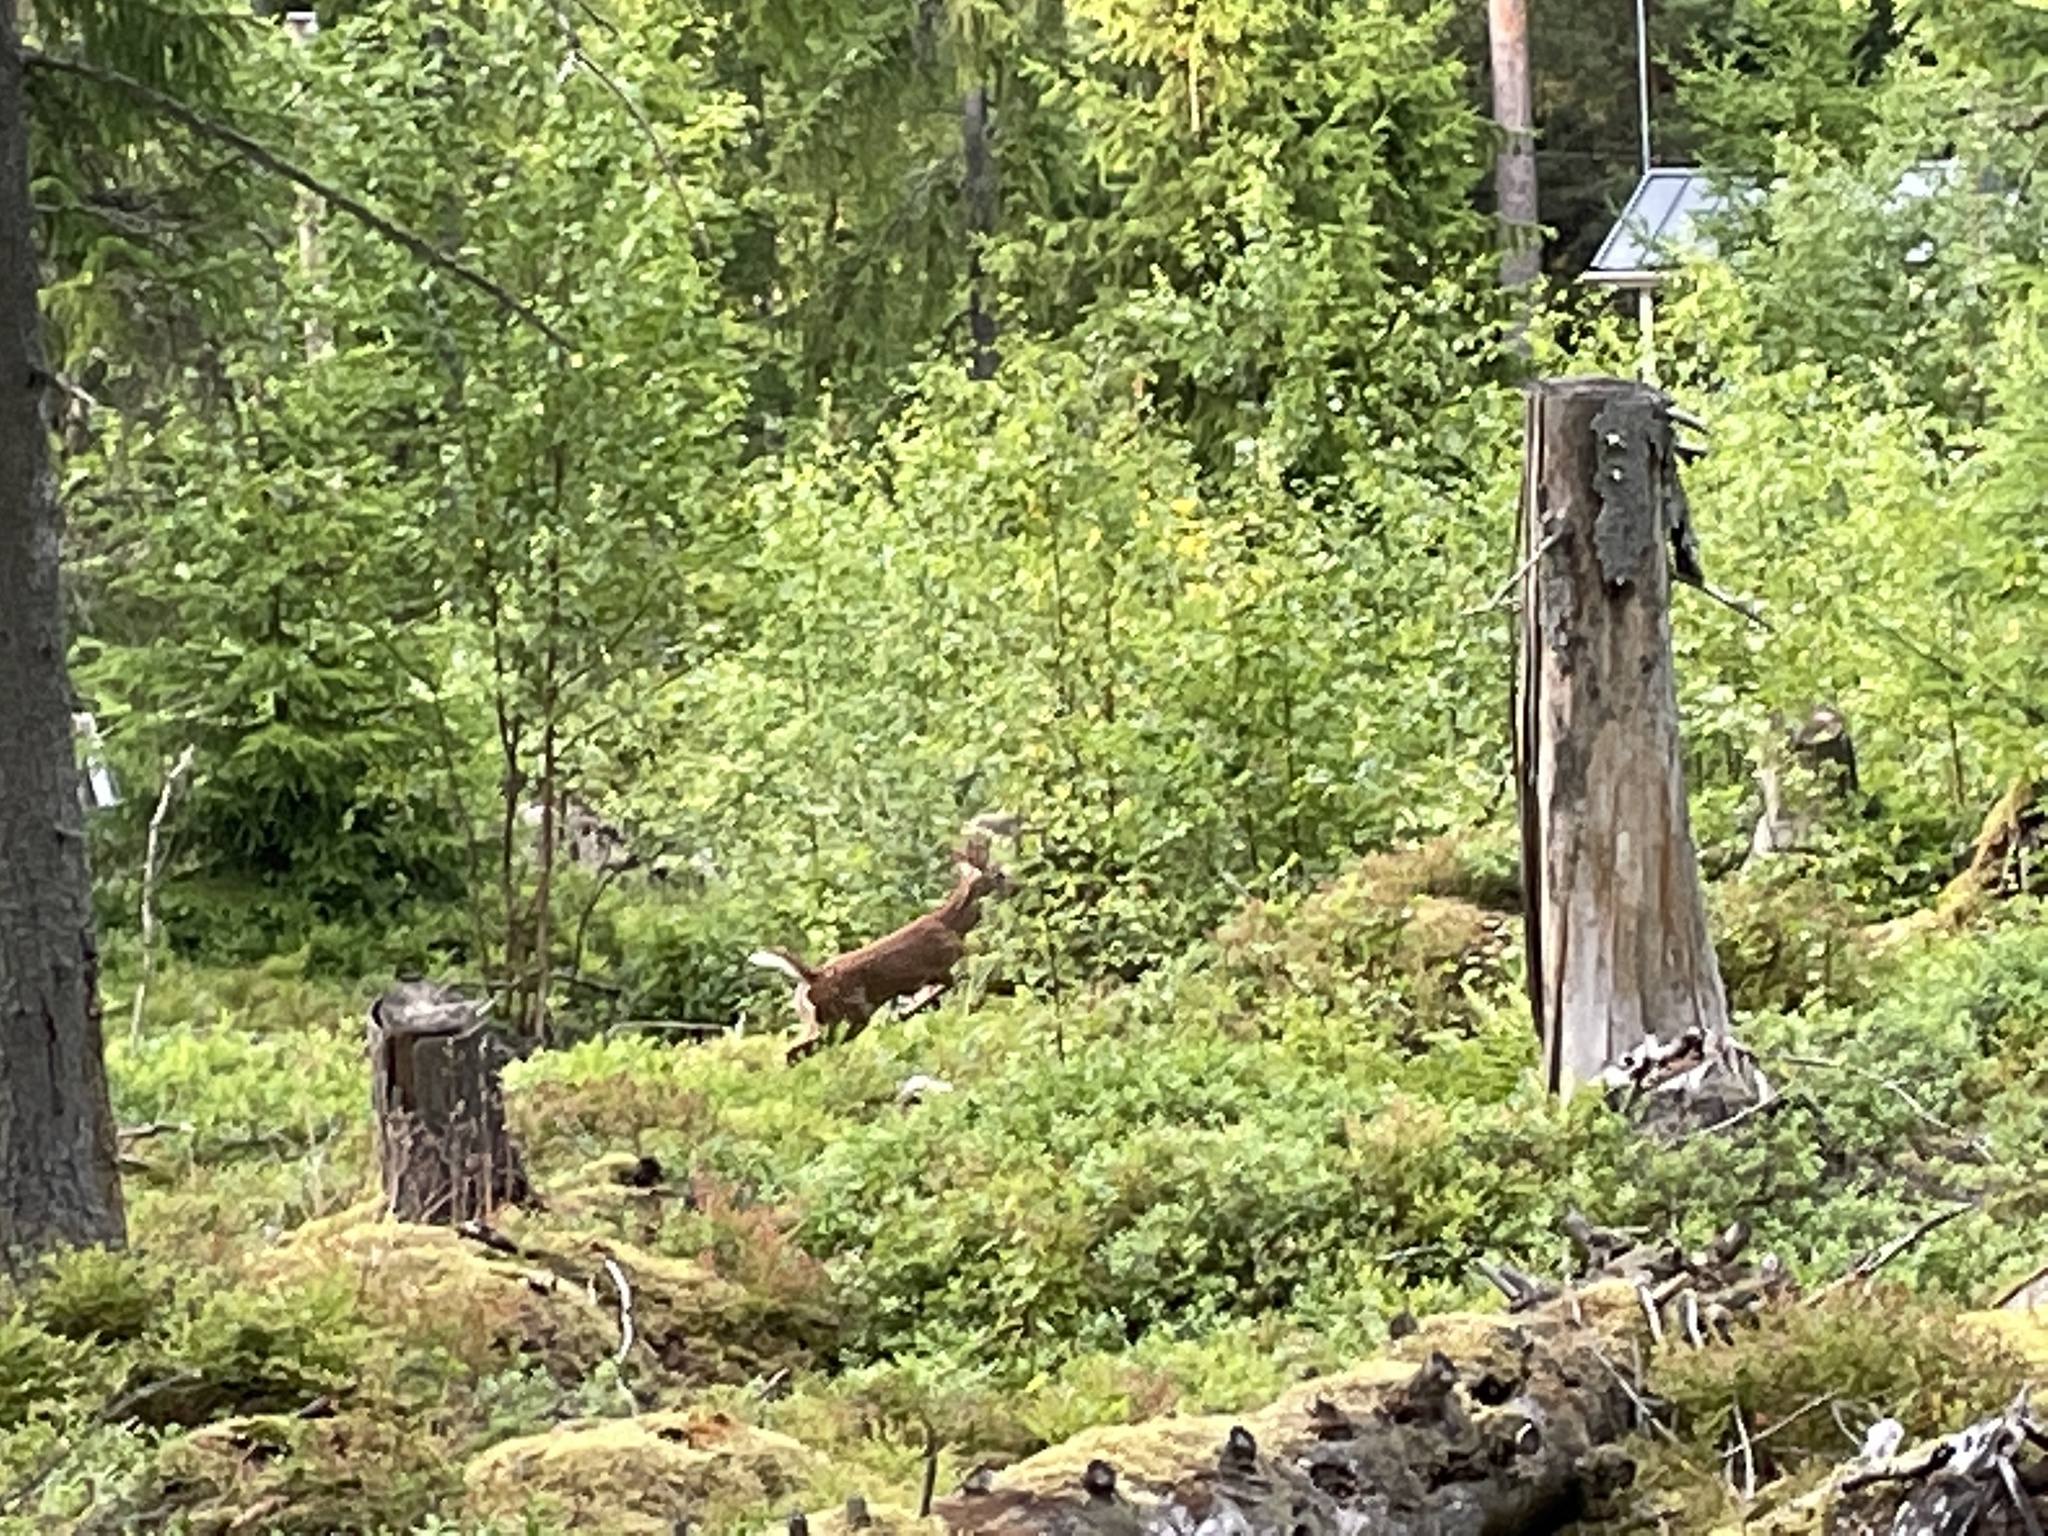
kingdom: Animalia
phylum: Chordata
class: Mammalia
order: Artiodactyla
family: Cervidae
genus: Odocoileus
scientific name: Odocoileus virginianus
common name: White-tailed deer
